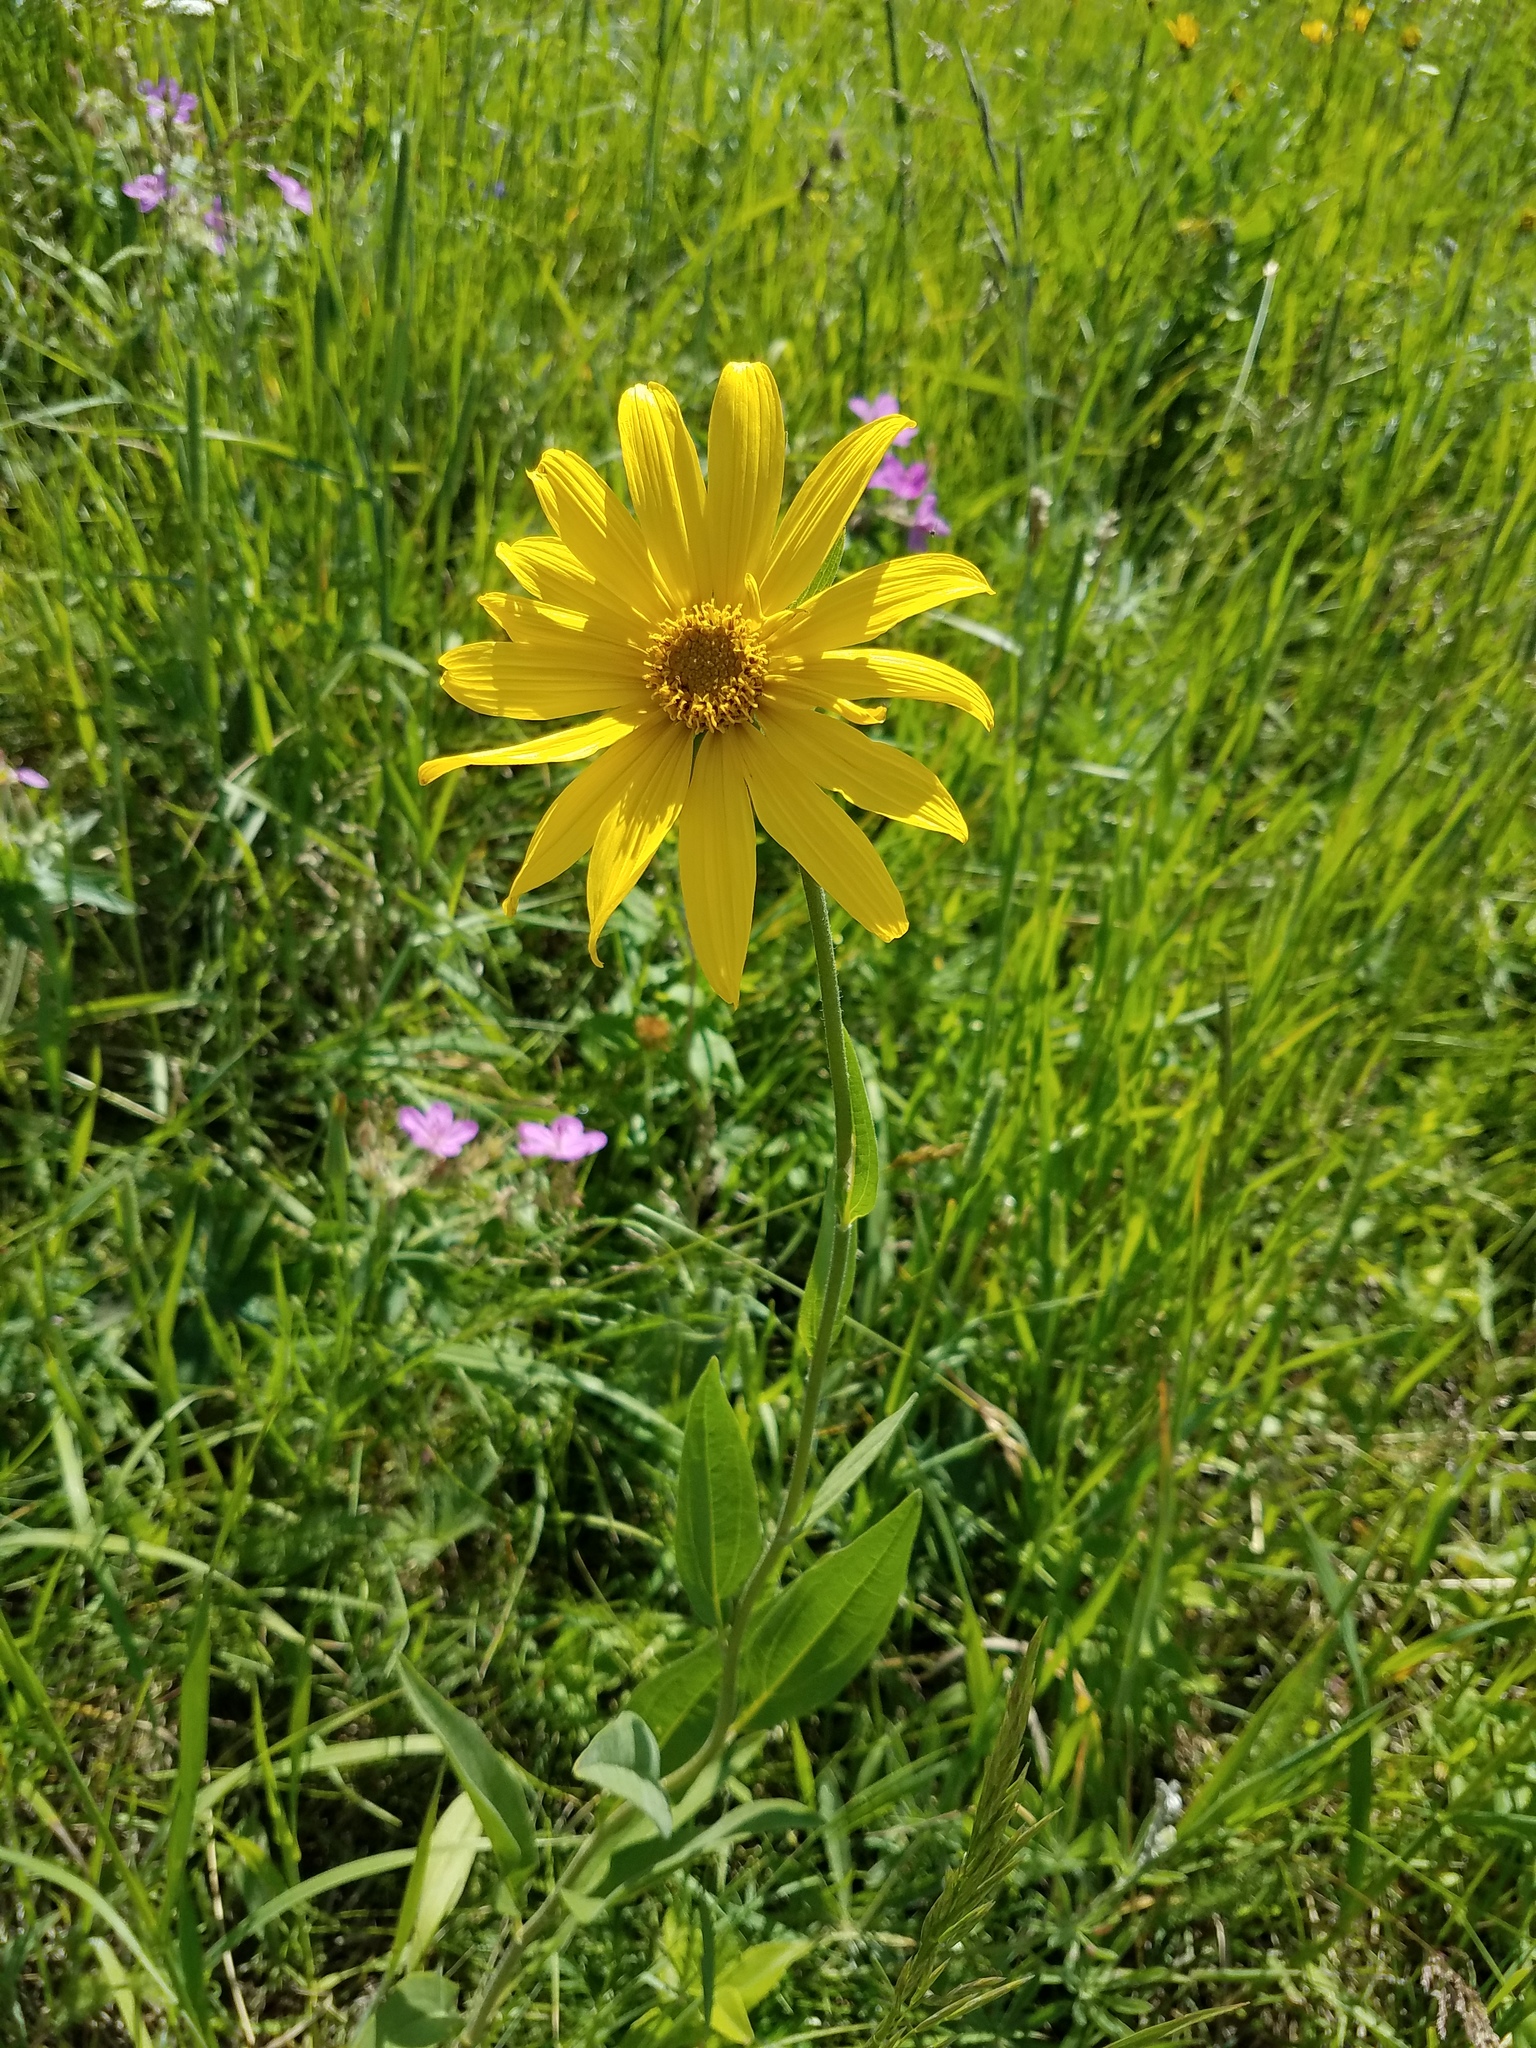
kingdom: Plantae
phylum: Tracheophyta
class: Magnoliopsida
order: Asterales
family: Asteraceae
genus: Helianthus
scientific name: Helianthus pauciflorus
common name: Stiff sunflower
